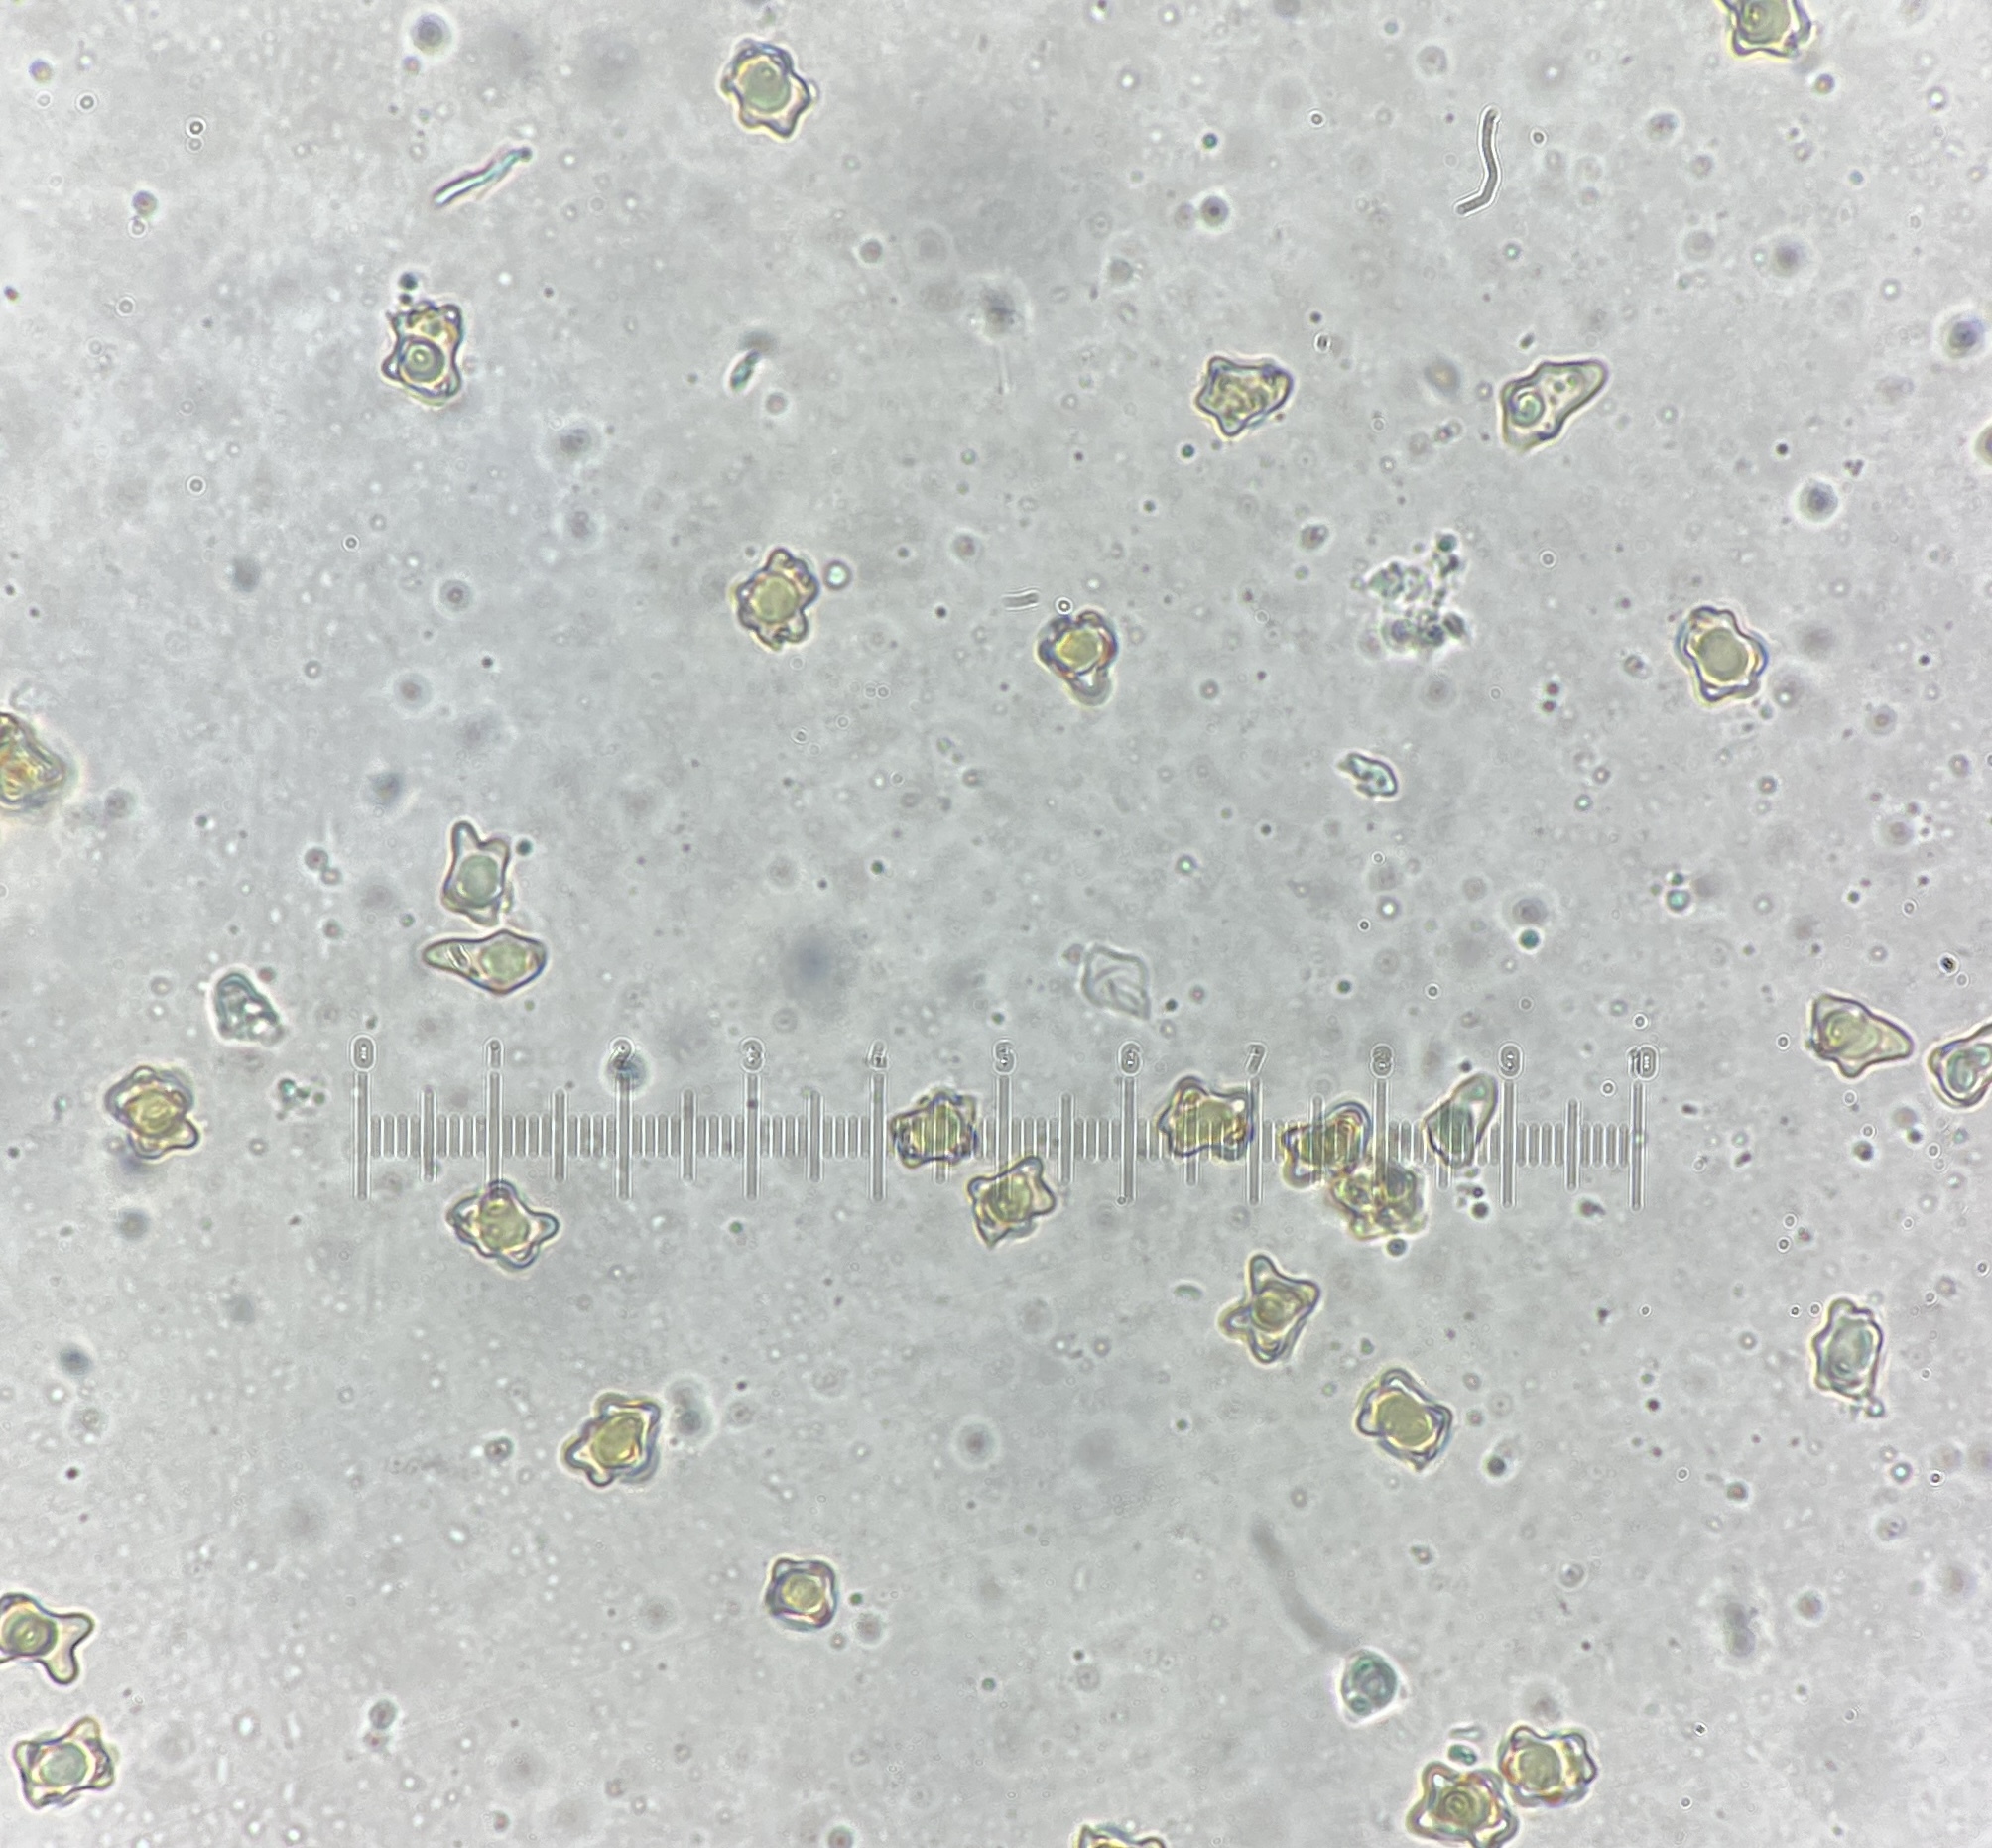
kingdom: Fungi
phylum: Basidiomycota
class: Agaricomycetes
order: Agaricales
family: Inocybaceae
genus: Inocybe
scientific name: Inocybe digitula
